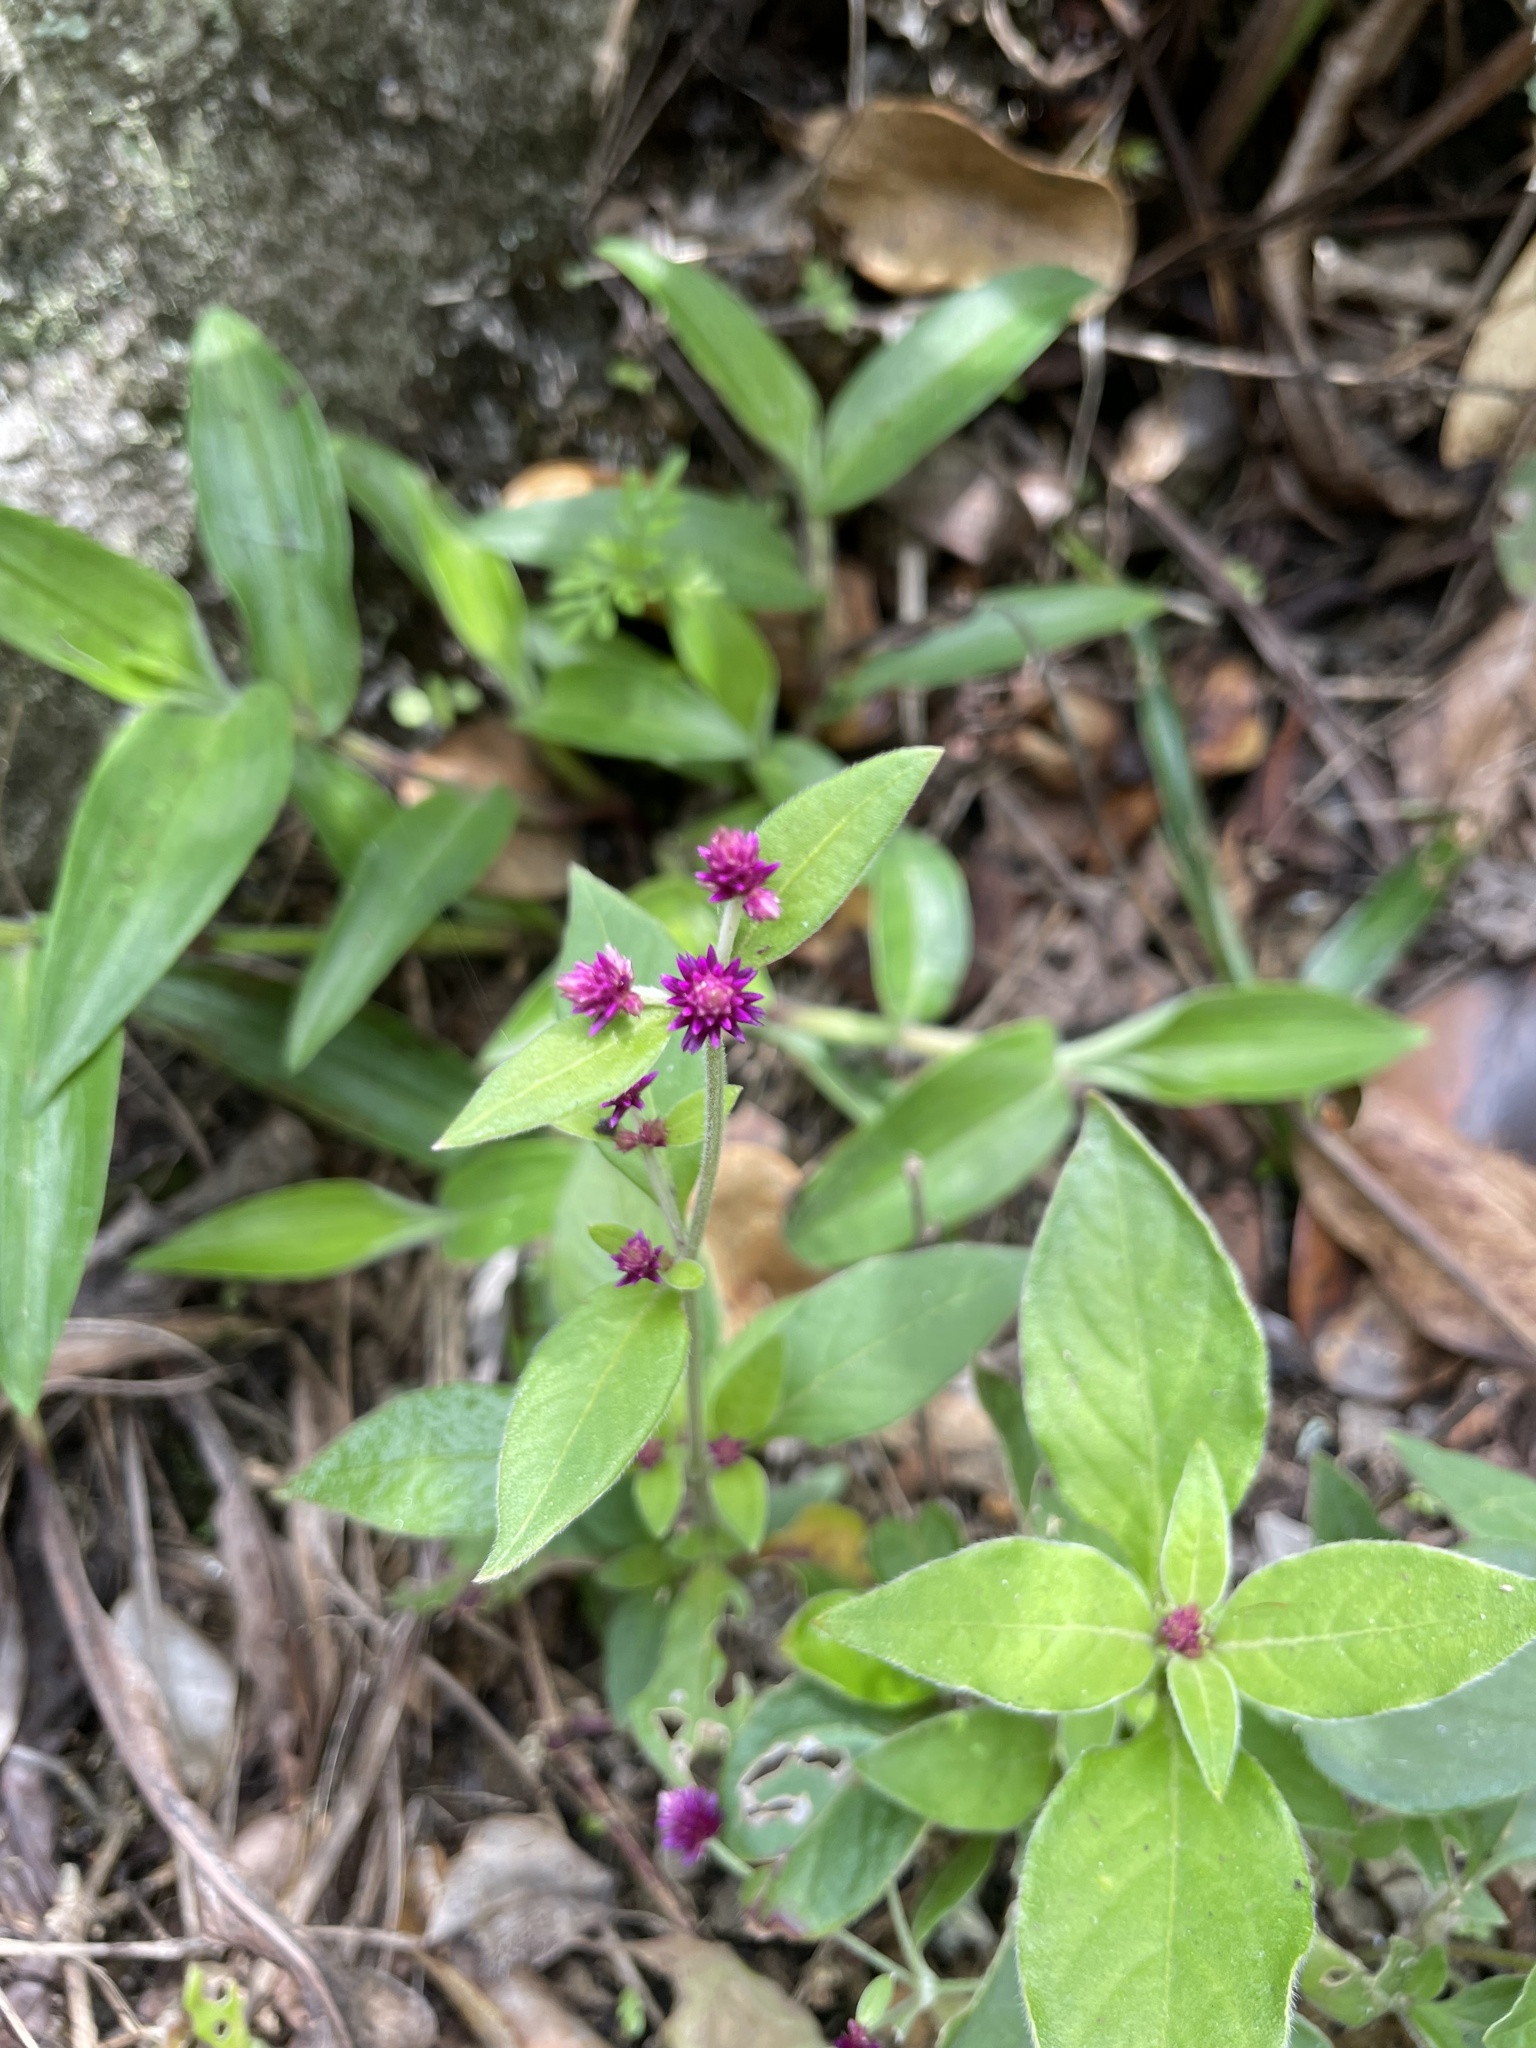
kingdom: Plantae
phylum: Tracheophyta
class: Magnoliopsida
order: Caryophyllales
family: Amaranthaceae
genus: Alternanthera
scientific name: Alternanthera porrigens
